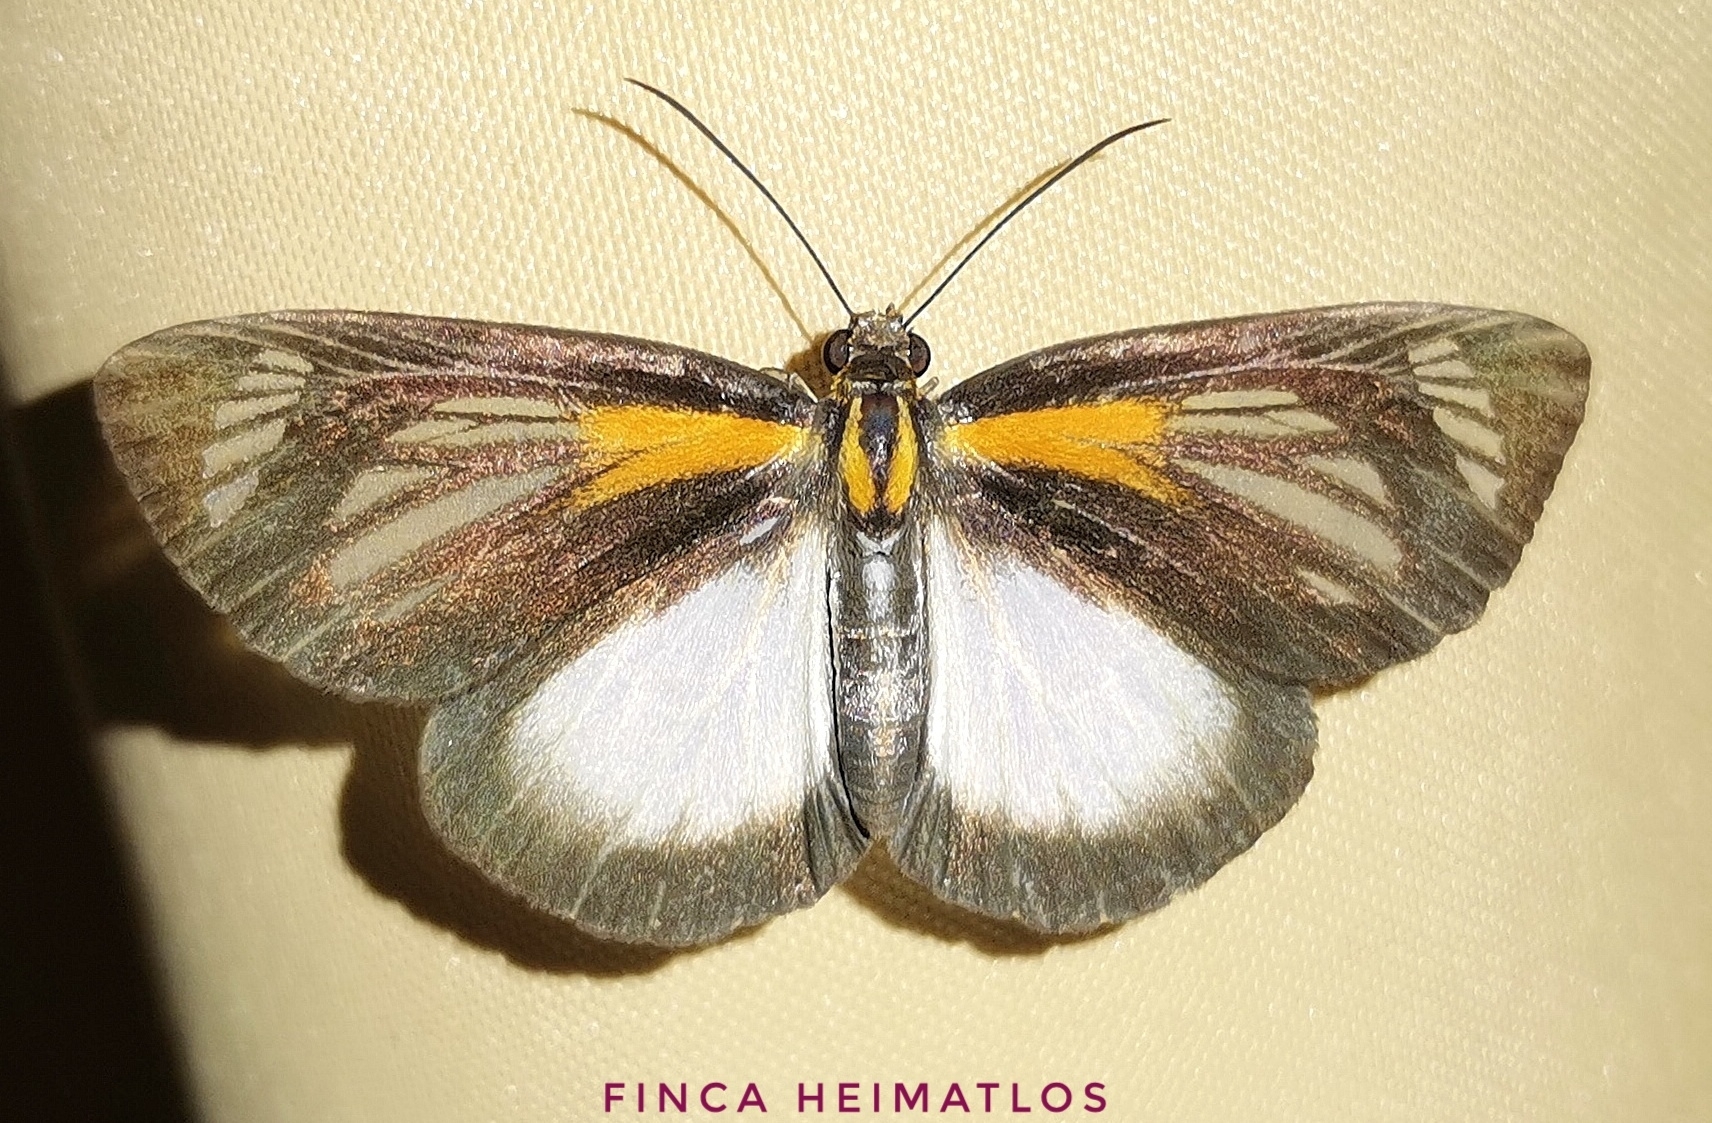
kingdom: Animalia
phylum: Arthropoda
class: Insecta
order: Lepidoptera
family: Hesperiidae
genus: Cabirus
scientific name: Cabirus procas
